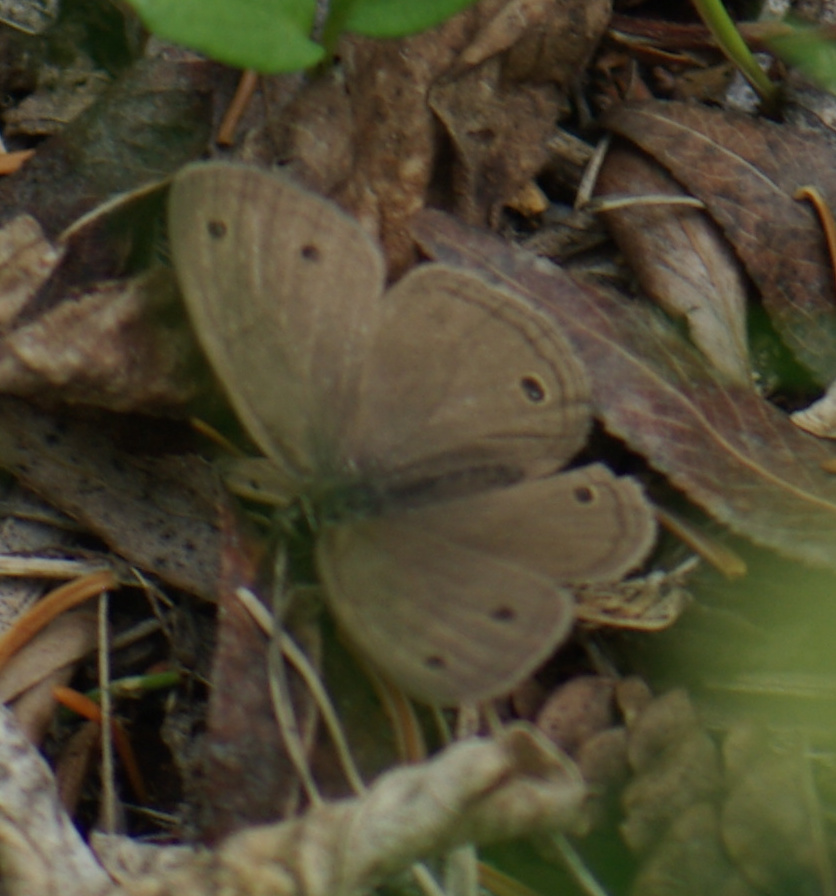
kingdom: Animalia
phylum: Arthropoda
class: Insecta
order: Lepidoptera
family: Nymphalidae
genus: Euptychia
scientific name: Euptychia cymela
